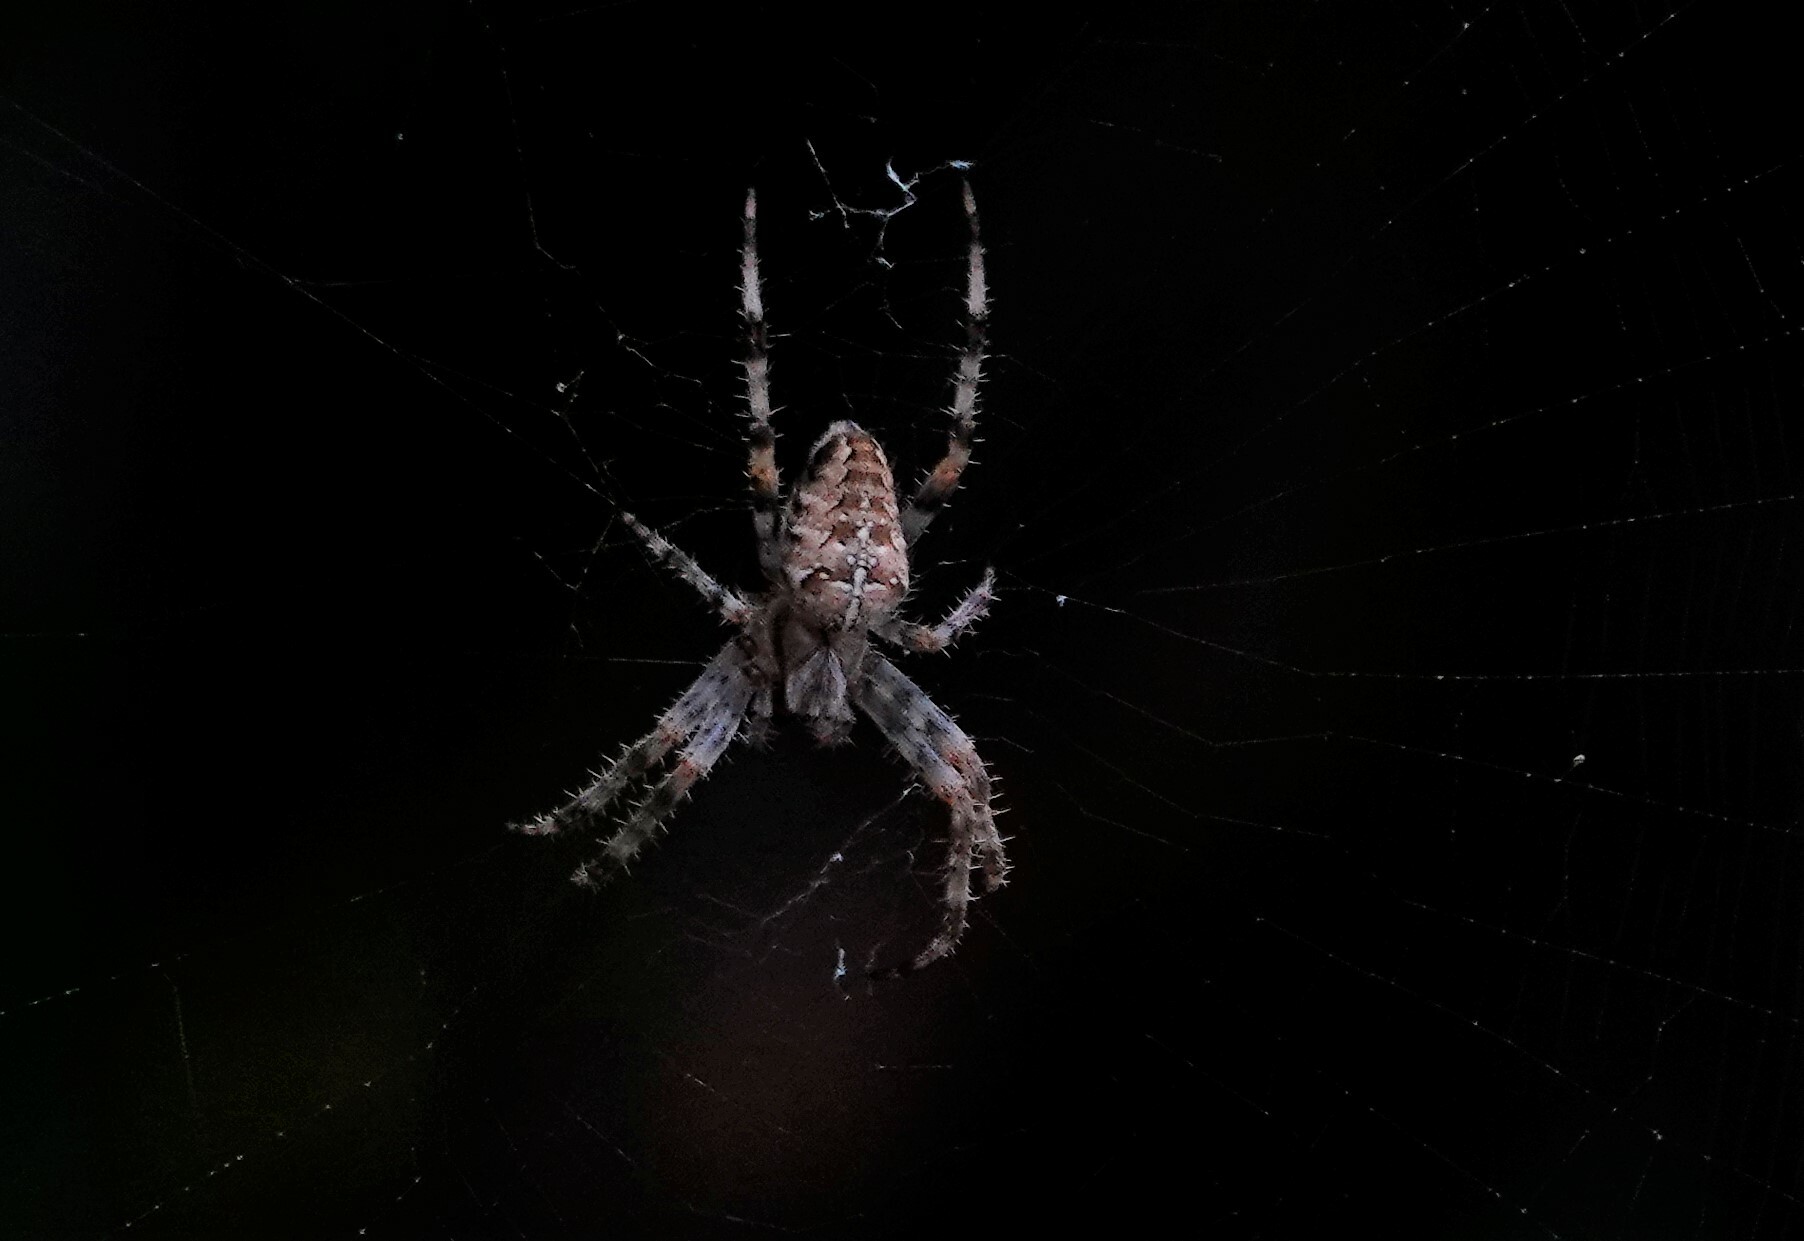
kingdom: Animalia
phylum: Arthropoda
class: Arachnida
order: Araneae
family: Araneidae
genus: Araneus
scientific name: Araneus diadematus
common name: Cross orbweaver
